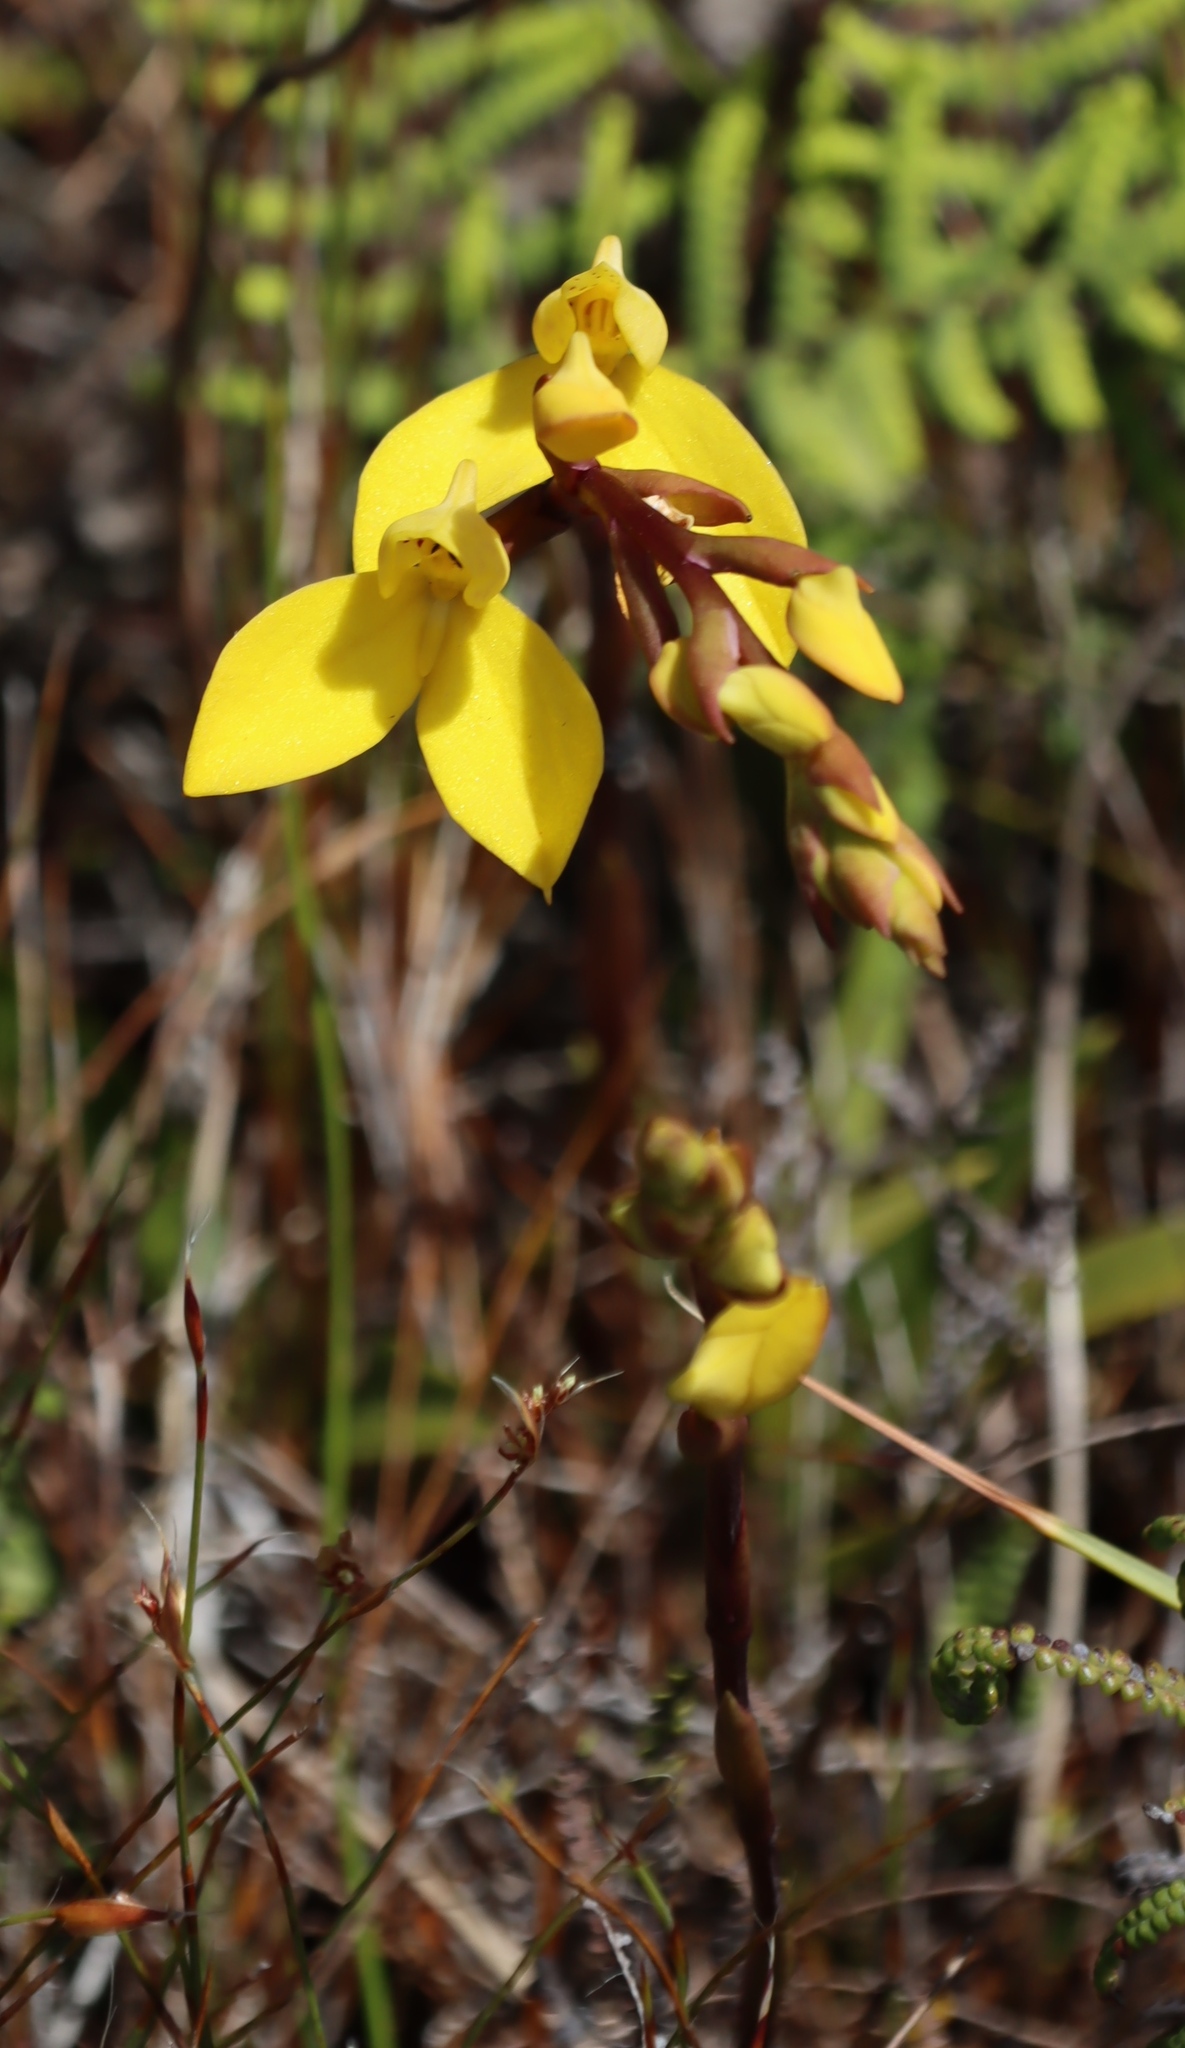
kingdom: Plantae
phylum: Tracheophyta
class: Liliopsida
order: Asparagales
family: Orchidaceae
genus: Disa
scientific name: Disa aurata
